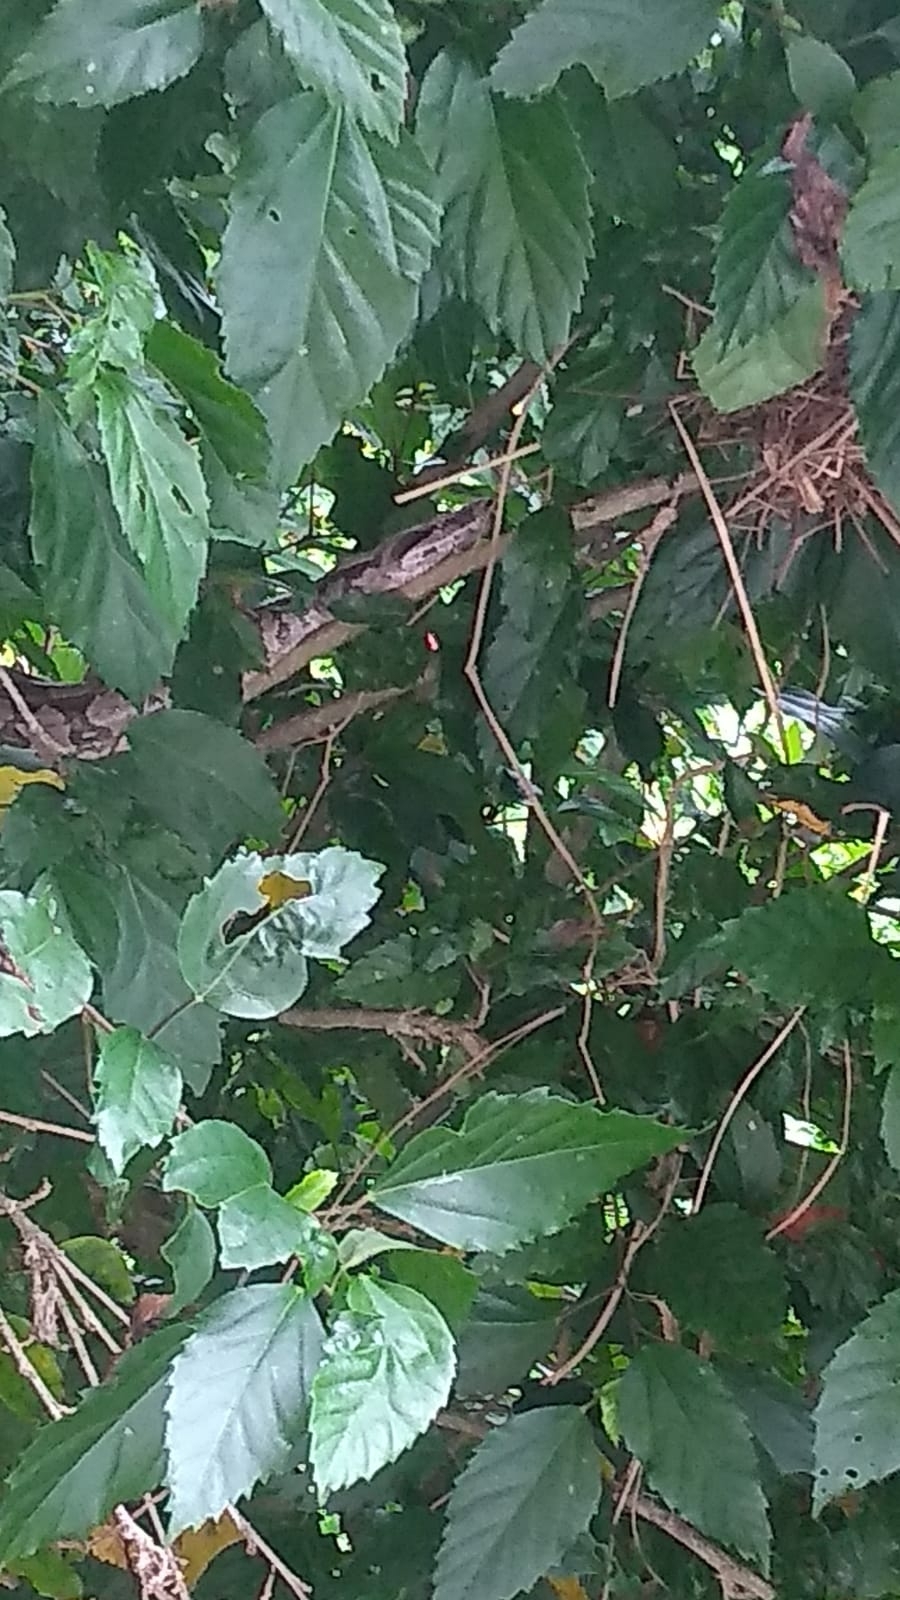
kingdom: Animalia
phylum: Chordata
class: Squamata
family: Boidae
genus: Boa
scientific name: Boa constrictor
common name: Boa constrictor
